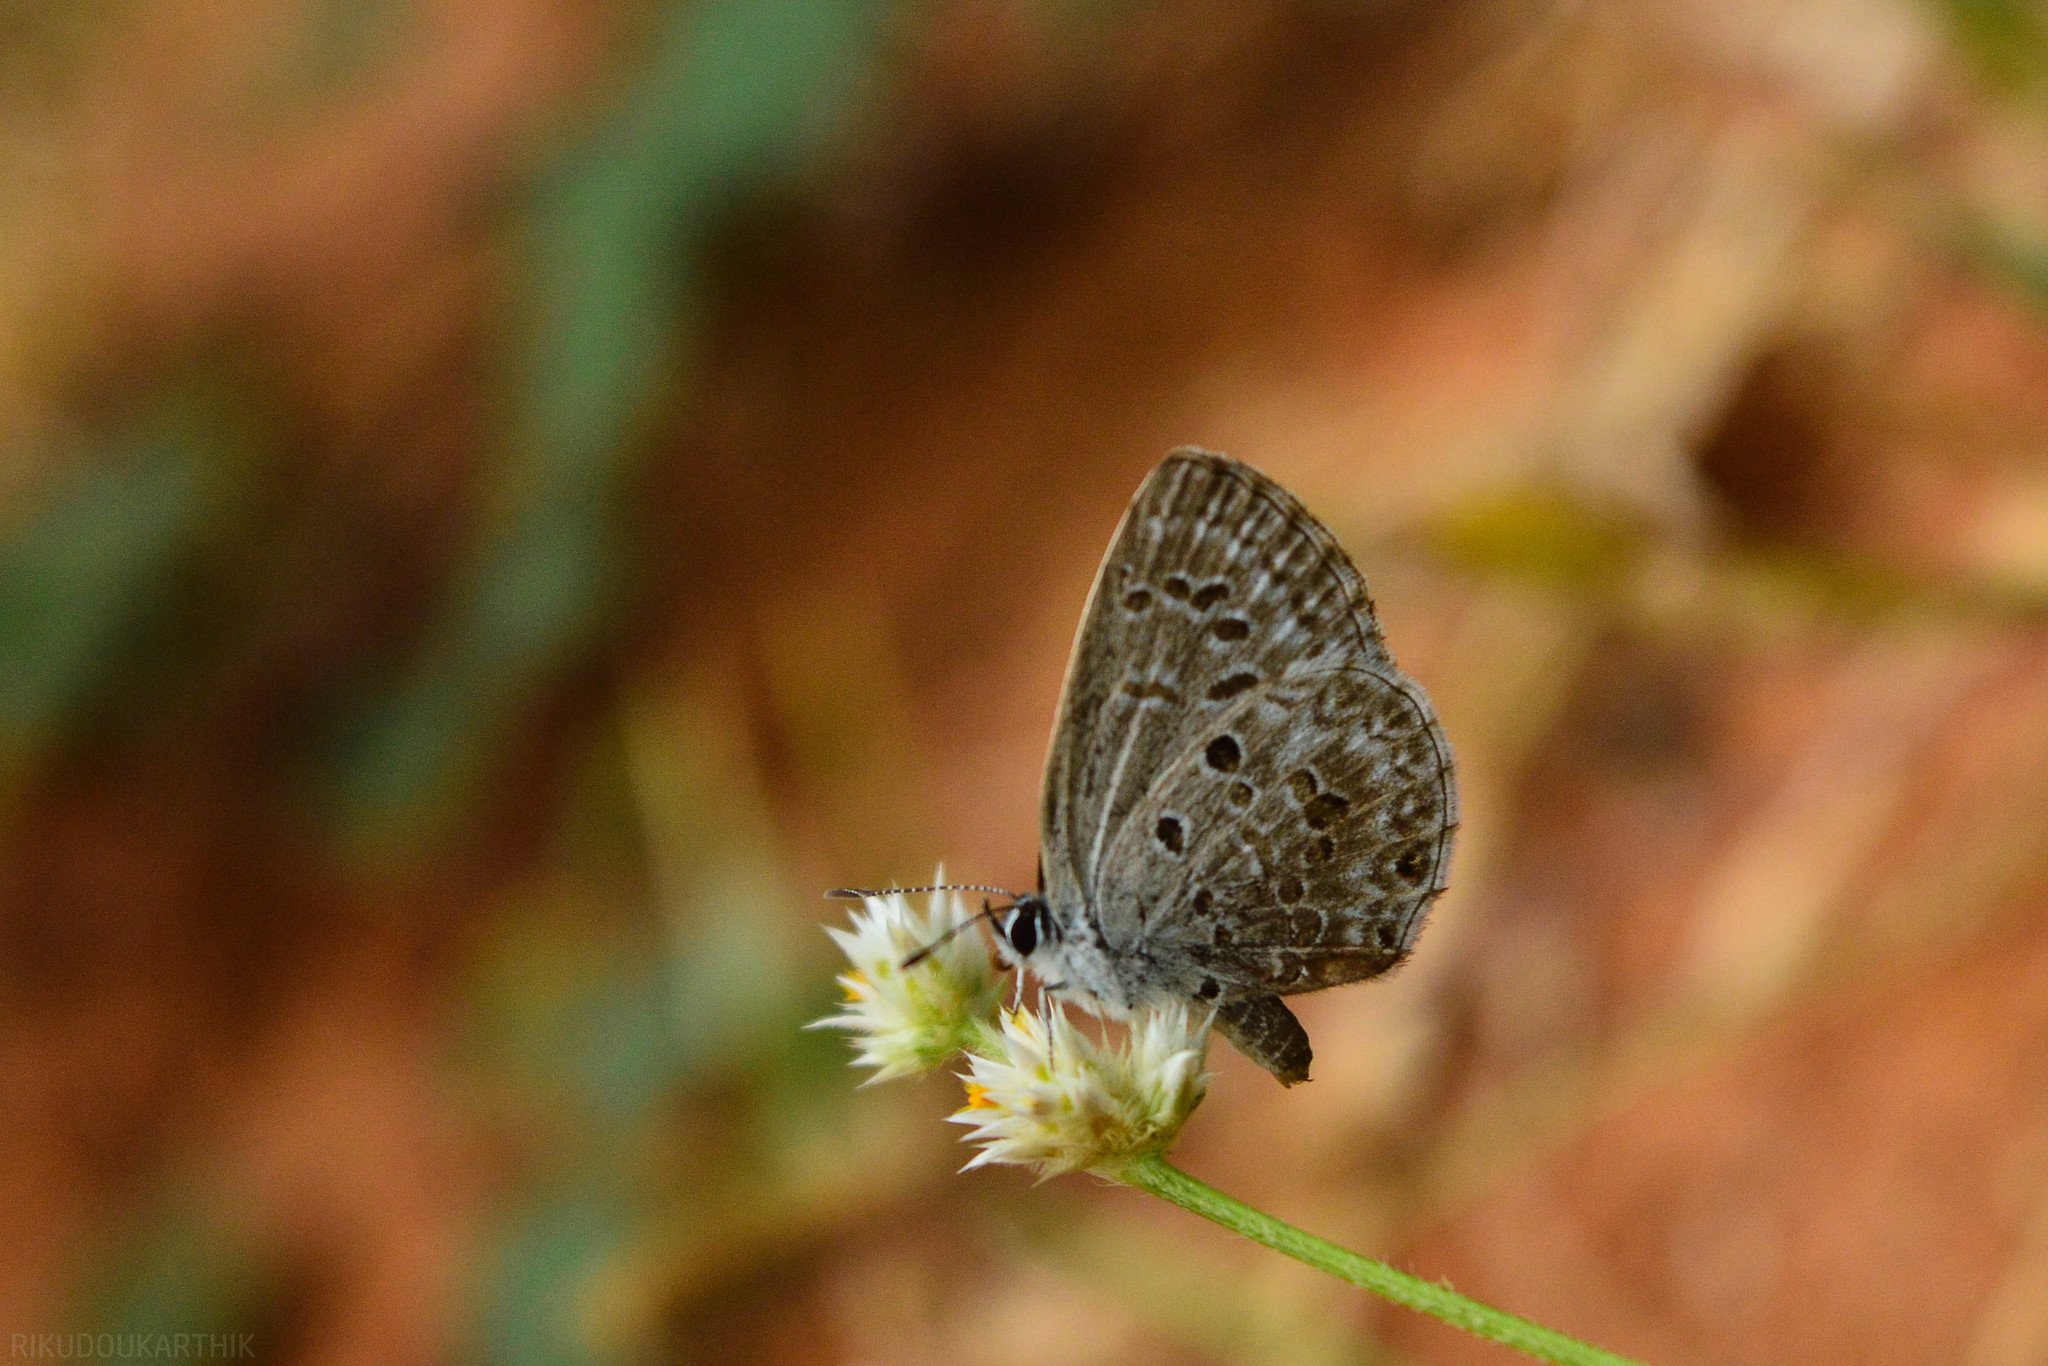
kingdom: Animalia
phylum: Arthropoda
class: Insecta
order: Lepidoptera
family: Lycaenidae
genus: Chilades
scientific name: Chilades laius
